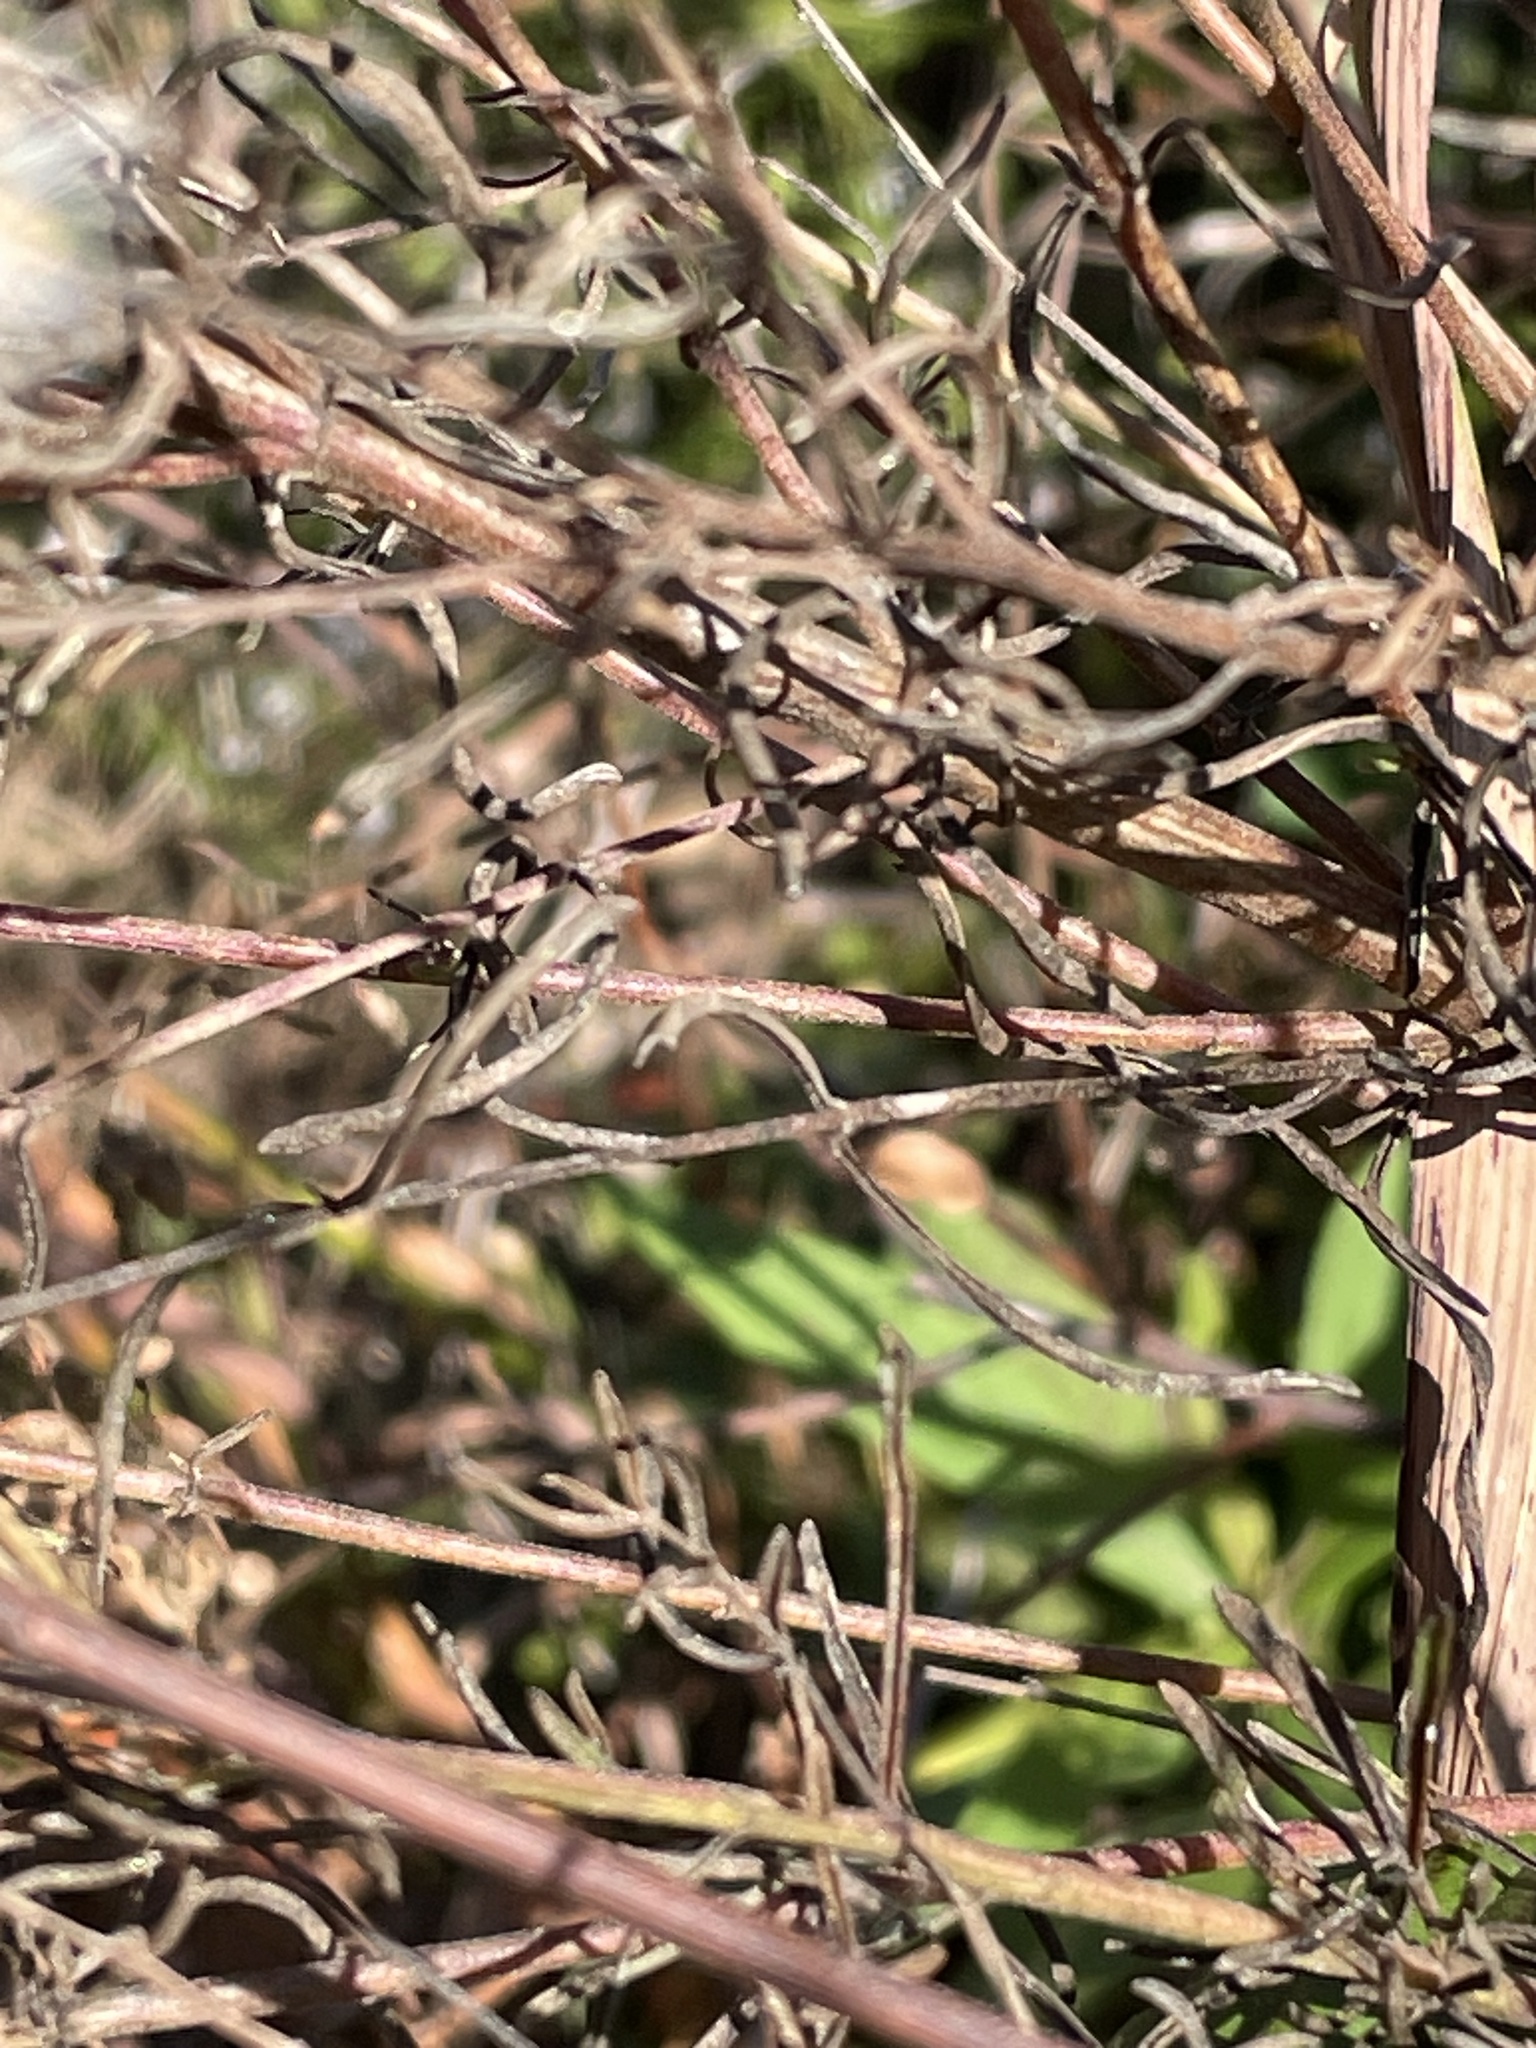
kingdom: Plantae
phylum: Tracheophyta
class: Magnoliopsida
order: Asterales
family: Asteraceae
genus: Eupatorium
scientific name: Eupatorium hyssopifolium
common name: Hyssop-leaf thoroughwort
